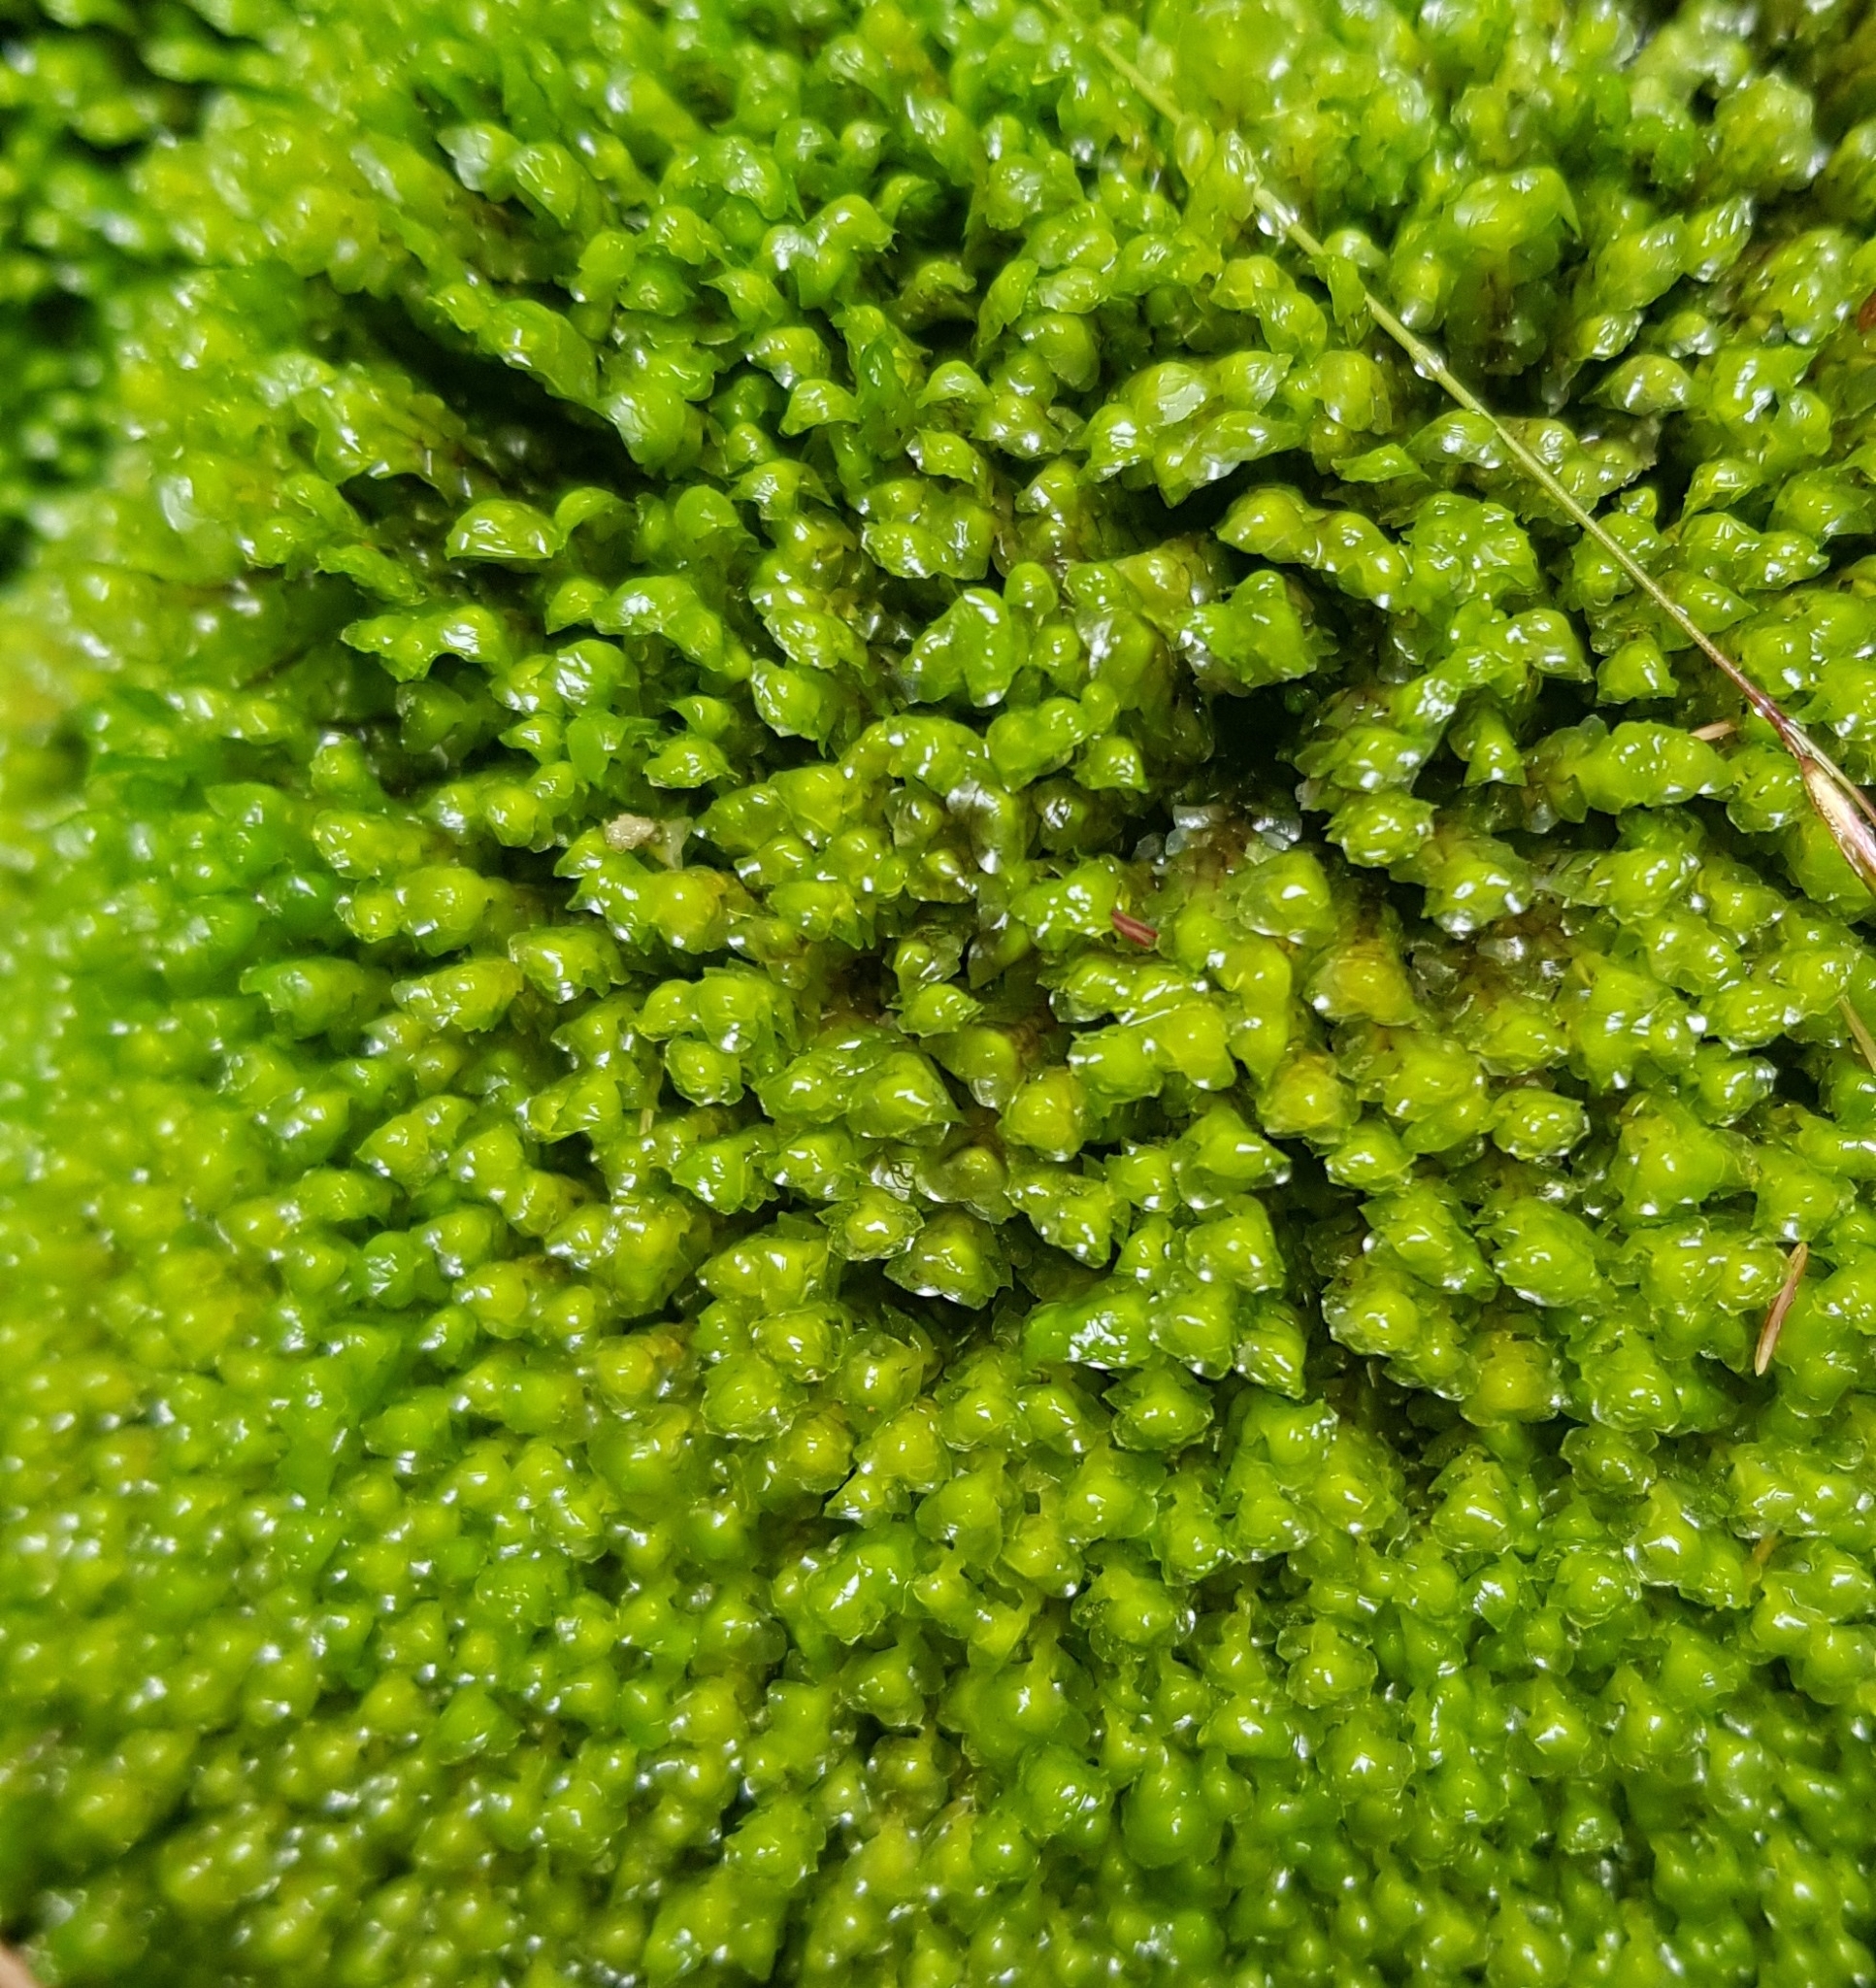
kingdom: Plantae
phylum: Marchantiophyta
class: Jungermanniopsida
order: Jungermanniales
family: Scapaniaceae
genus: Scapania
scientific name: Scapania undulata
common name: Water earwort
